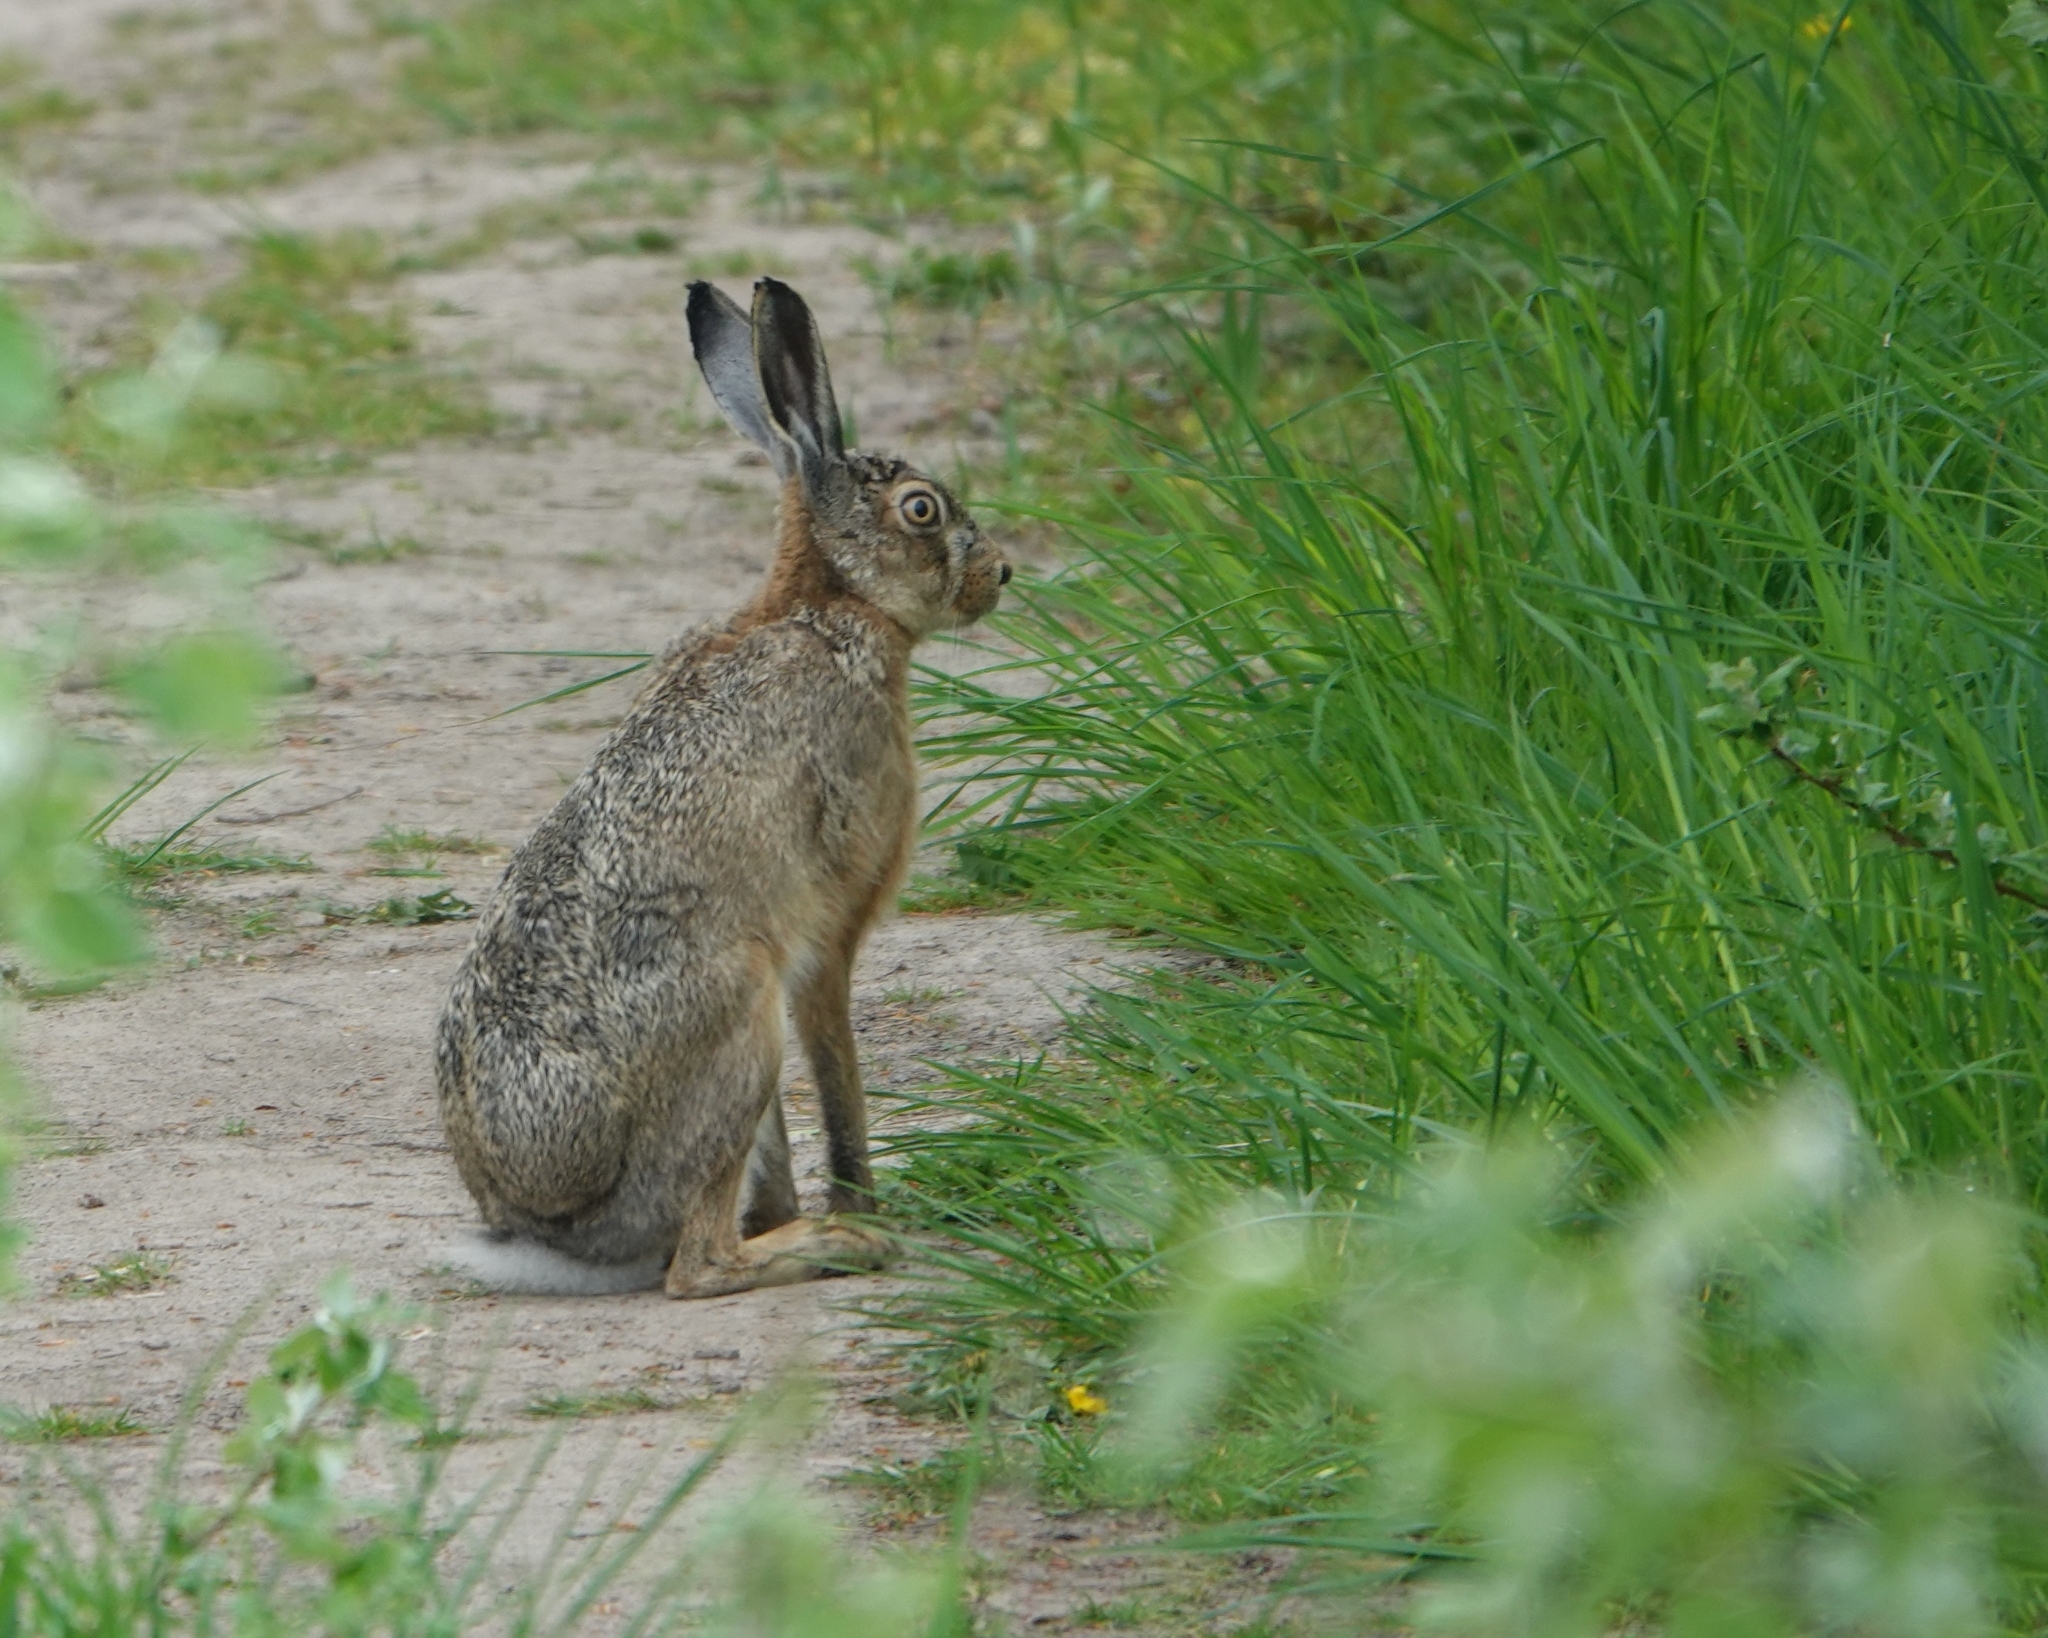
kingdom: Animalia
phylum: Chordata
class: Mammalia
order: Lagomorpha
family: Leporidae
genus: Lepus
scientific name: Lepus europaeus
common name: European hare
